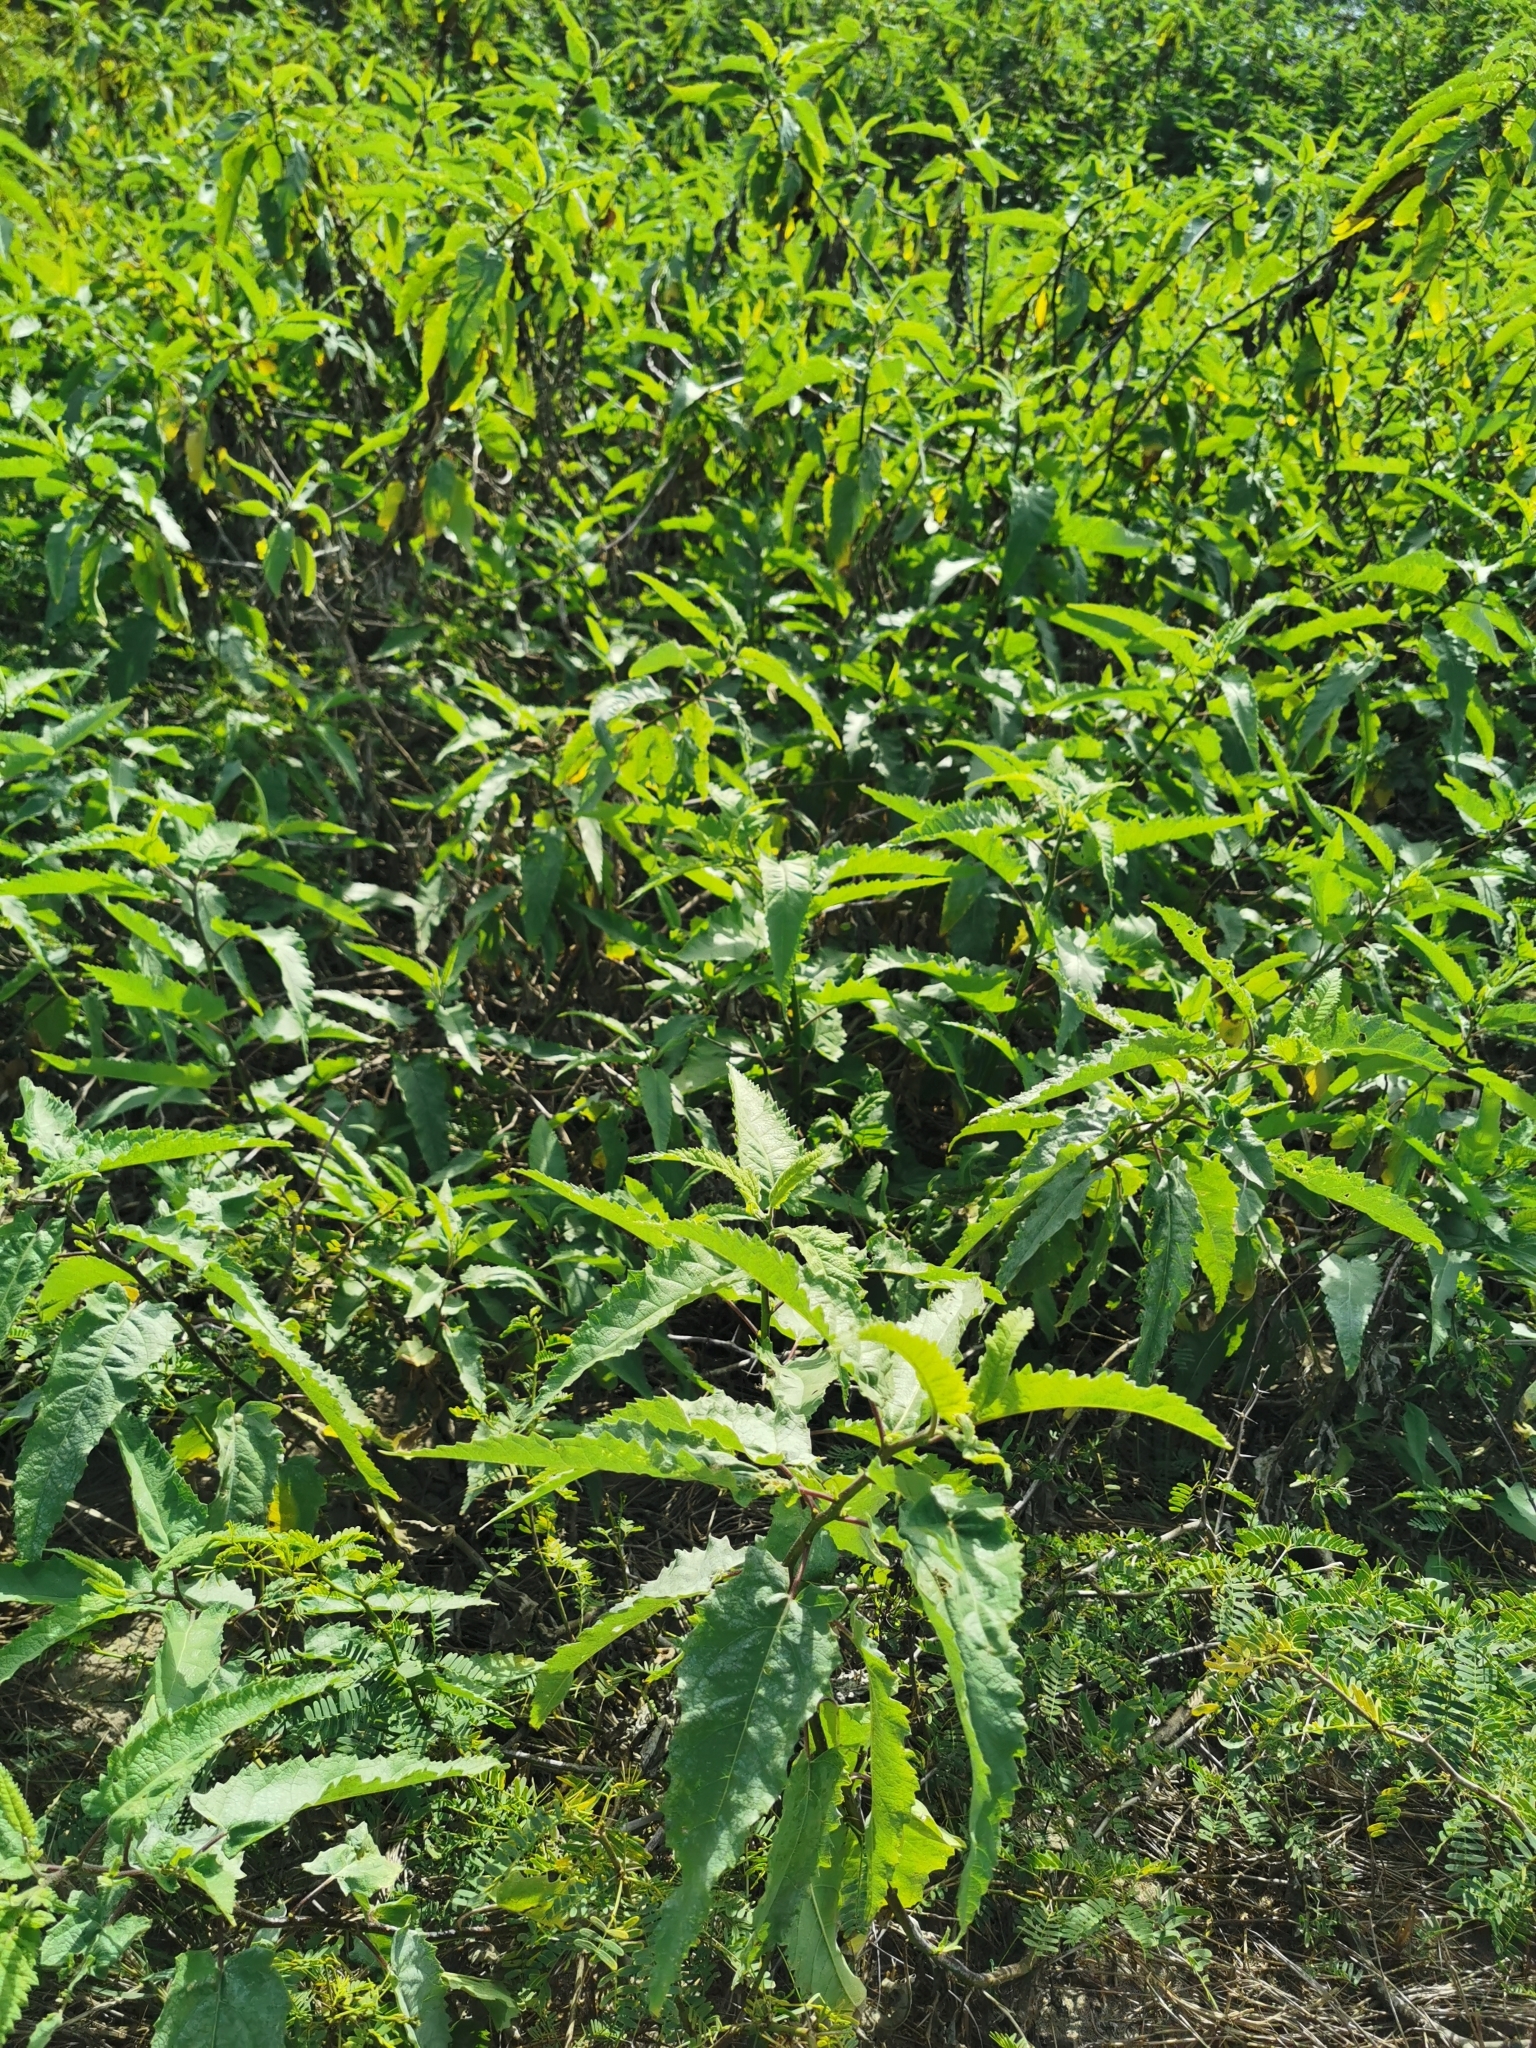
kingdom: Plantae
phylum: Tracheophyta
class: Magnoliopsida
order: Asterales
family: Asteraceae
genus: Ambrosia
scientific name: Ambrosia ambrosioides
